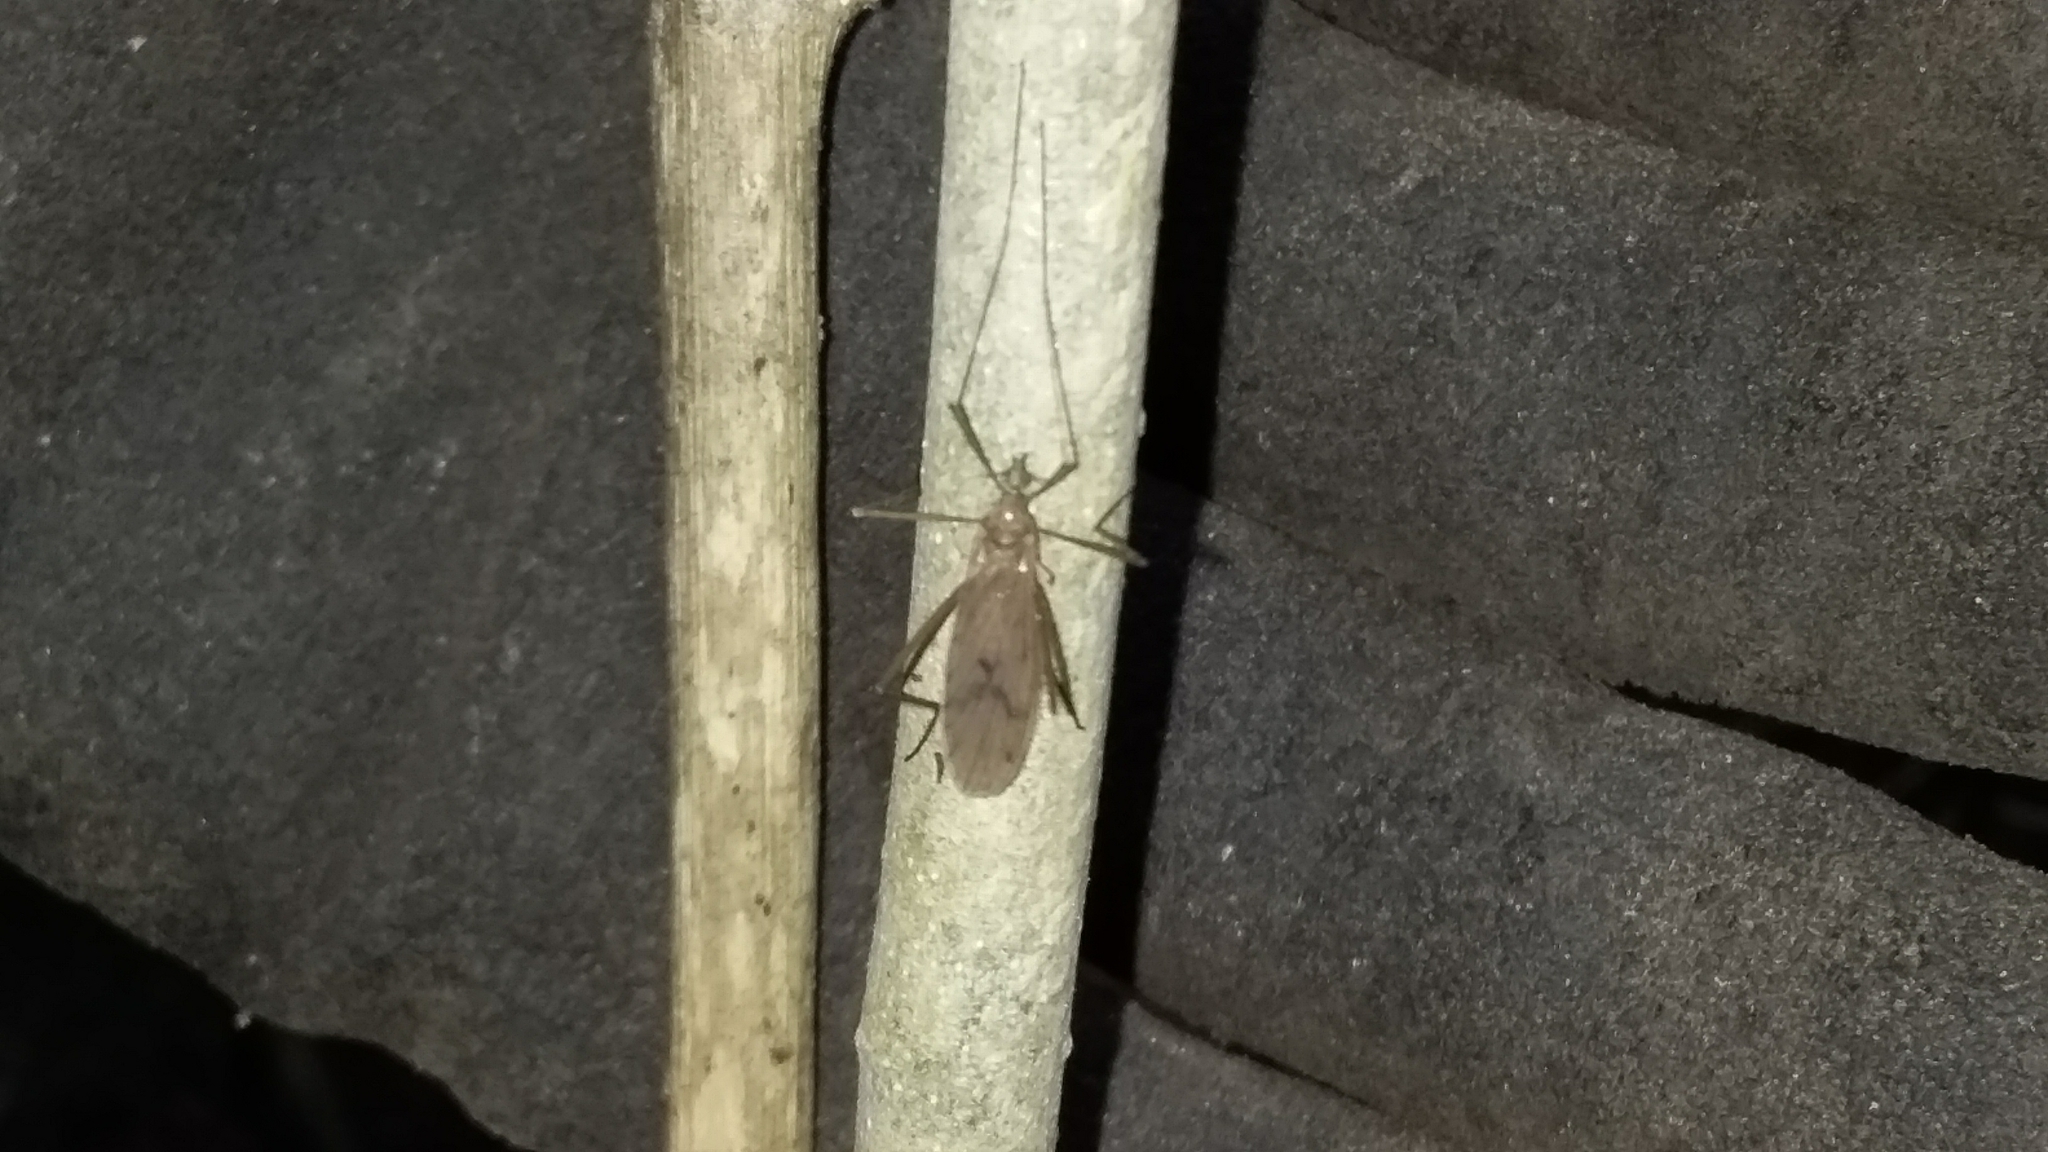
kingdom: Animalia
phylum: Arthropoda
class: Insecta
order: Diptera
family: Limoniidae
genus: Amphineurus
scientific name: Amphineurus insulsus
